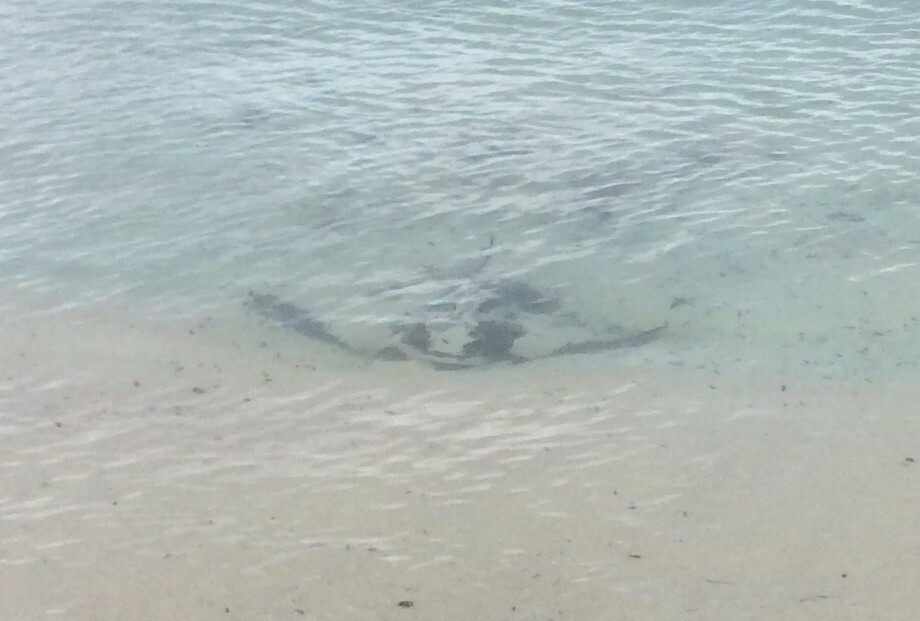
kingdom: Animalia
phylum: Chordata
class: Elasmobranchii
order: Myliobatiformes
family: Myliobatidae
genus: Myliobatis
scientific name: Myliobatis tenuicaudatus
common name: Eagle ray
